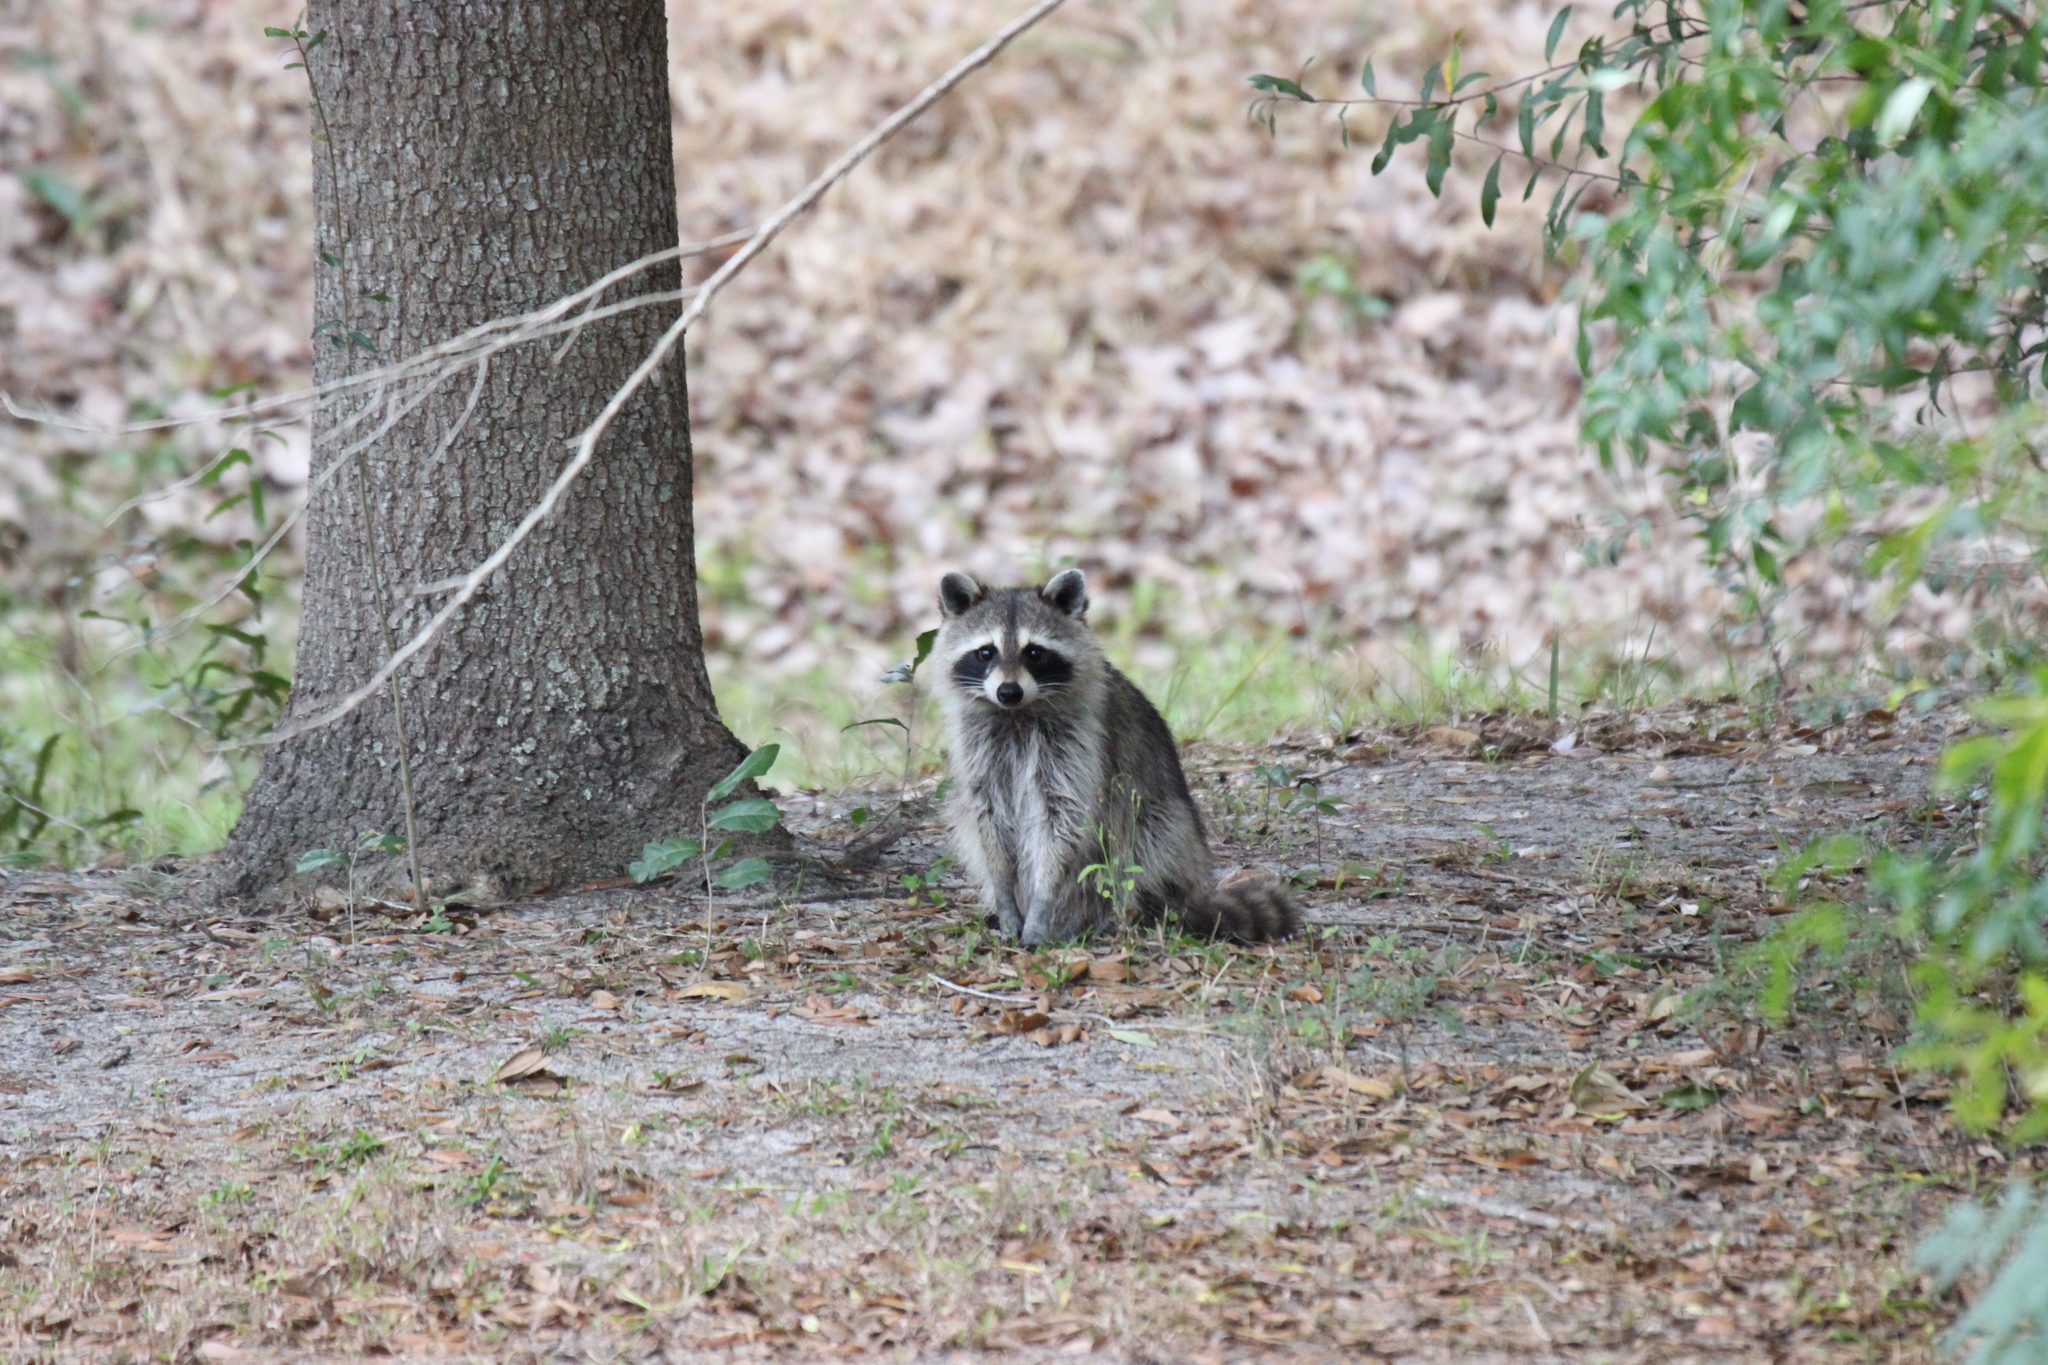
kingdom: Animalia
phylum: Chordata
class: Mammalia
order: Carnivora
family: Procyonidae
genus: Procyon
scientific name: Procyon lotor
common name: Raccoon
